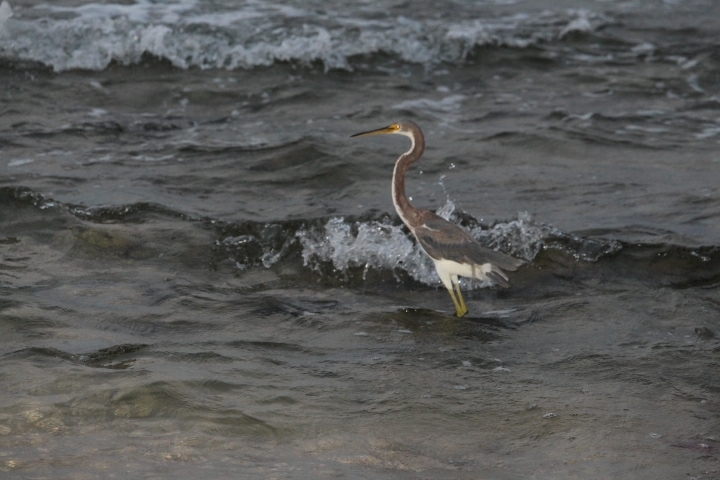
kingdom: Animalia
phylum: Chordata
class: Aves
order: Pelecaniformes
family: Ardeidae
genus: Egretta
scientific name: Egretta tricolor
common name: Tricolored heron
